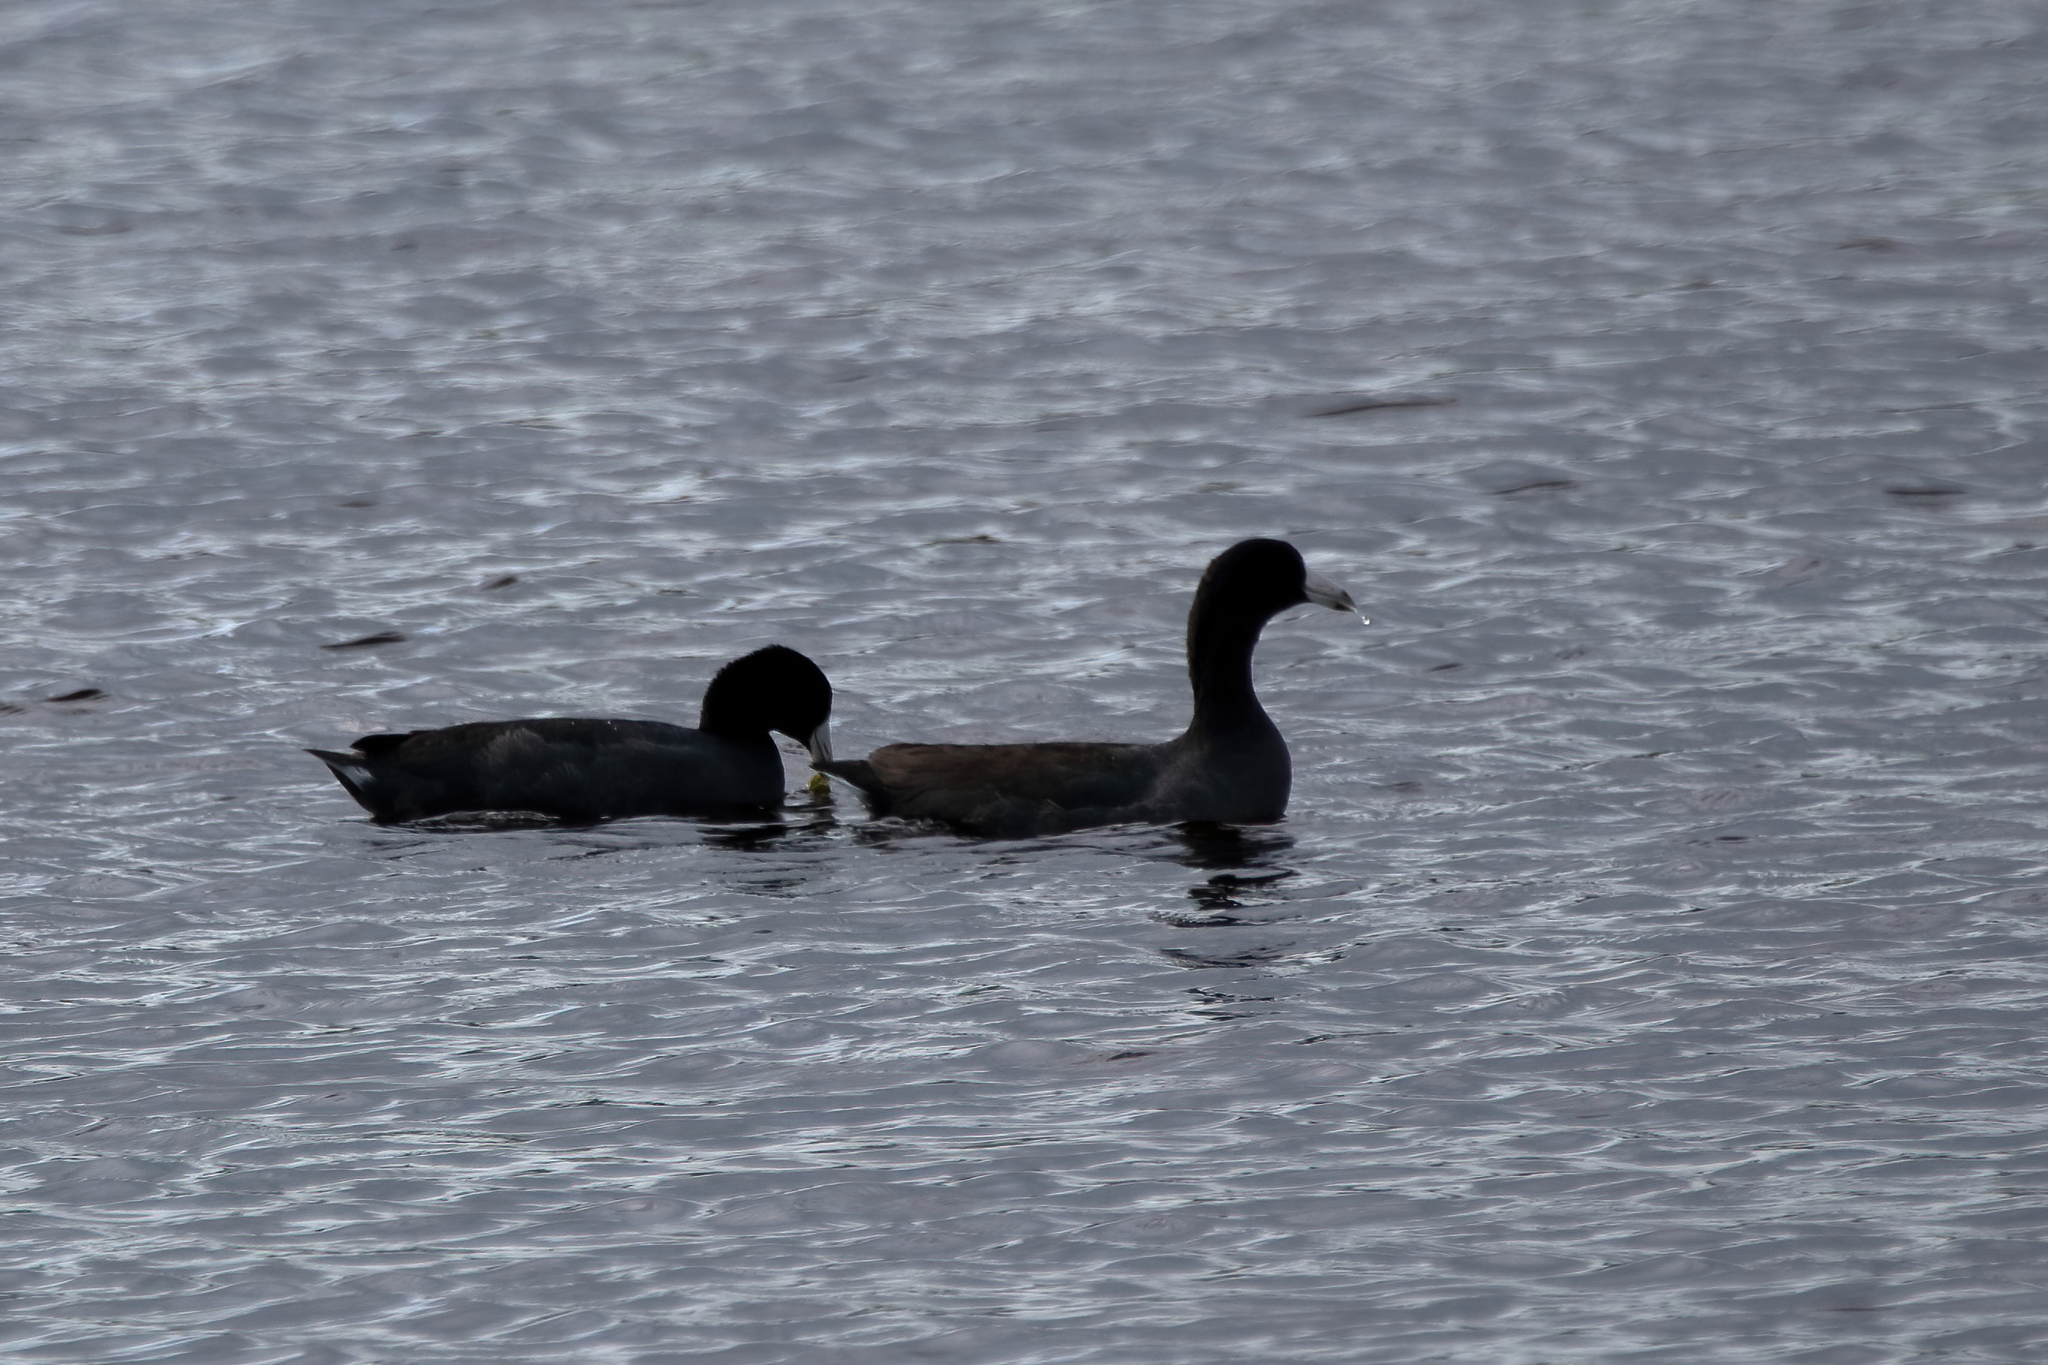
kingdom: Animalia
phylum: Chordata
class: Aves
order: Gruiformes
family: Rallidae
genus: Fulica
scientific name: Fulica americana
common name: American coot
